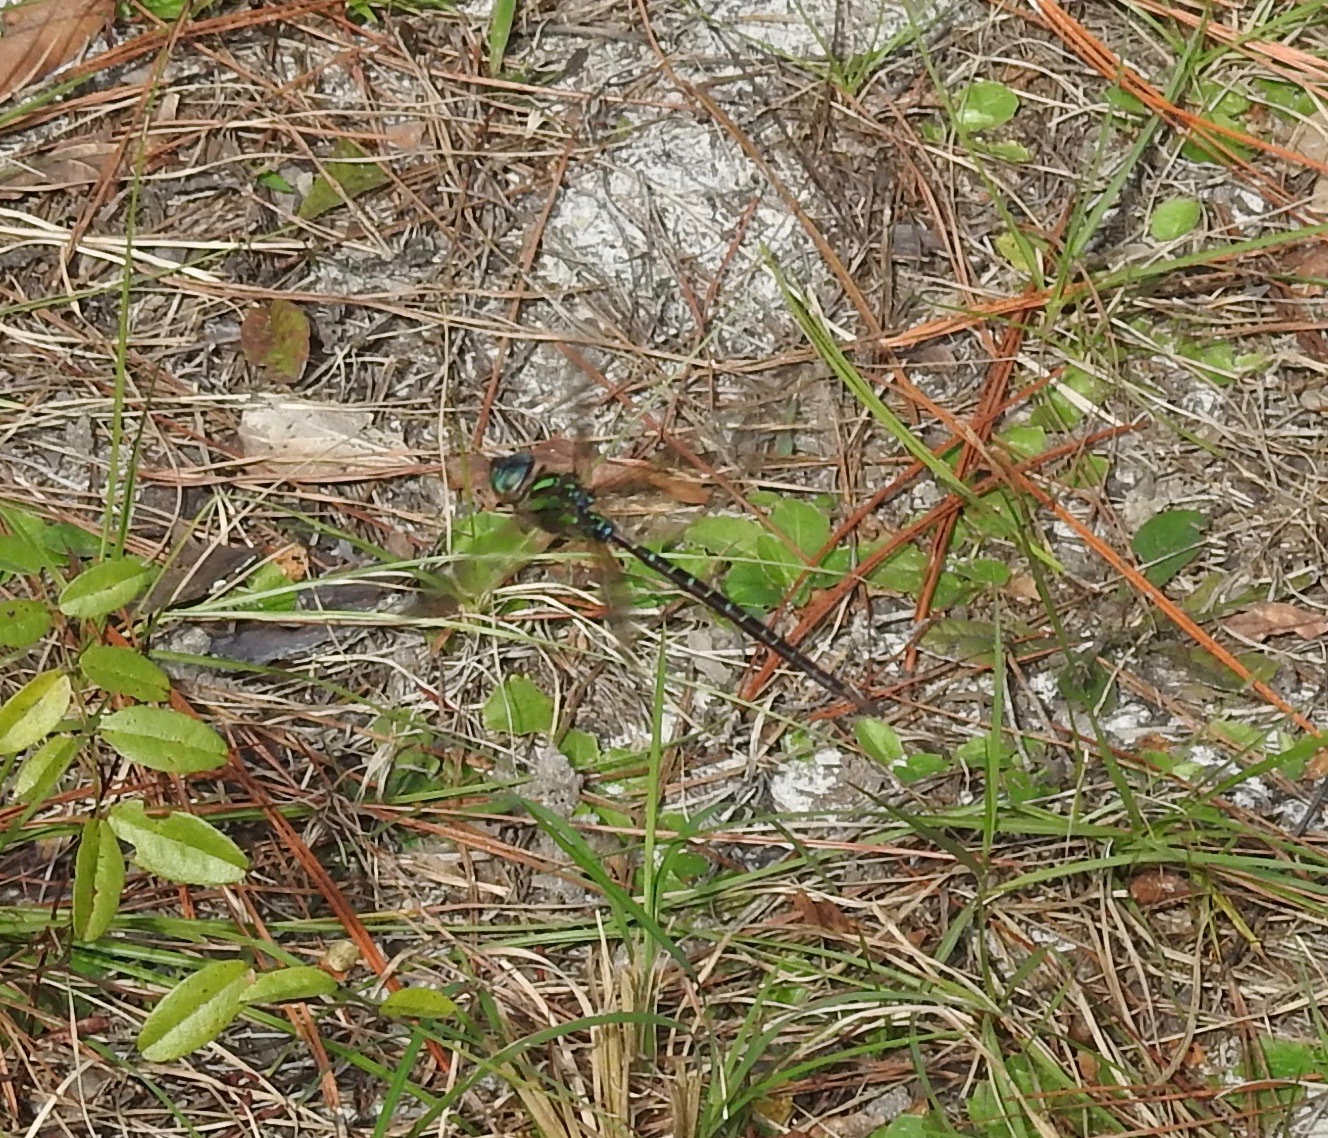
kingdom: Animalia
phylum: Arthropoda
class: Insecta
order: Odonata
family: Aeshnidae
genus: Coryphaeschna
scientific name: Coryphaeschna ingens
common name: Regal darner
